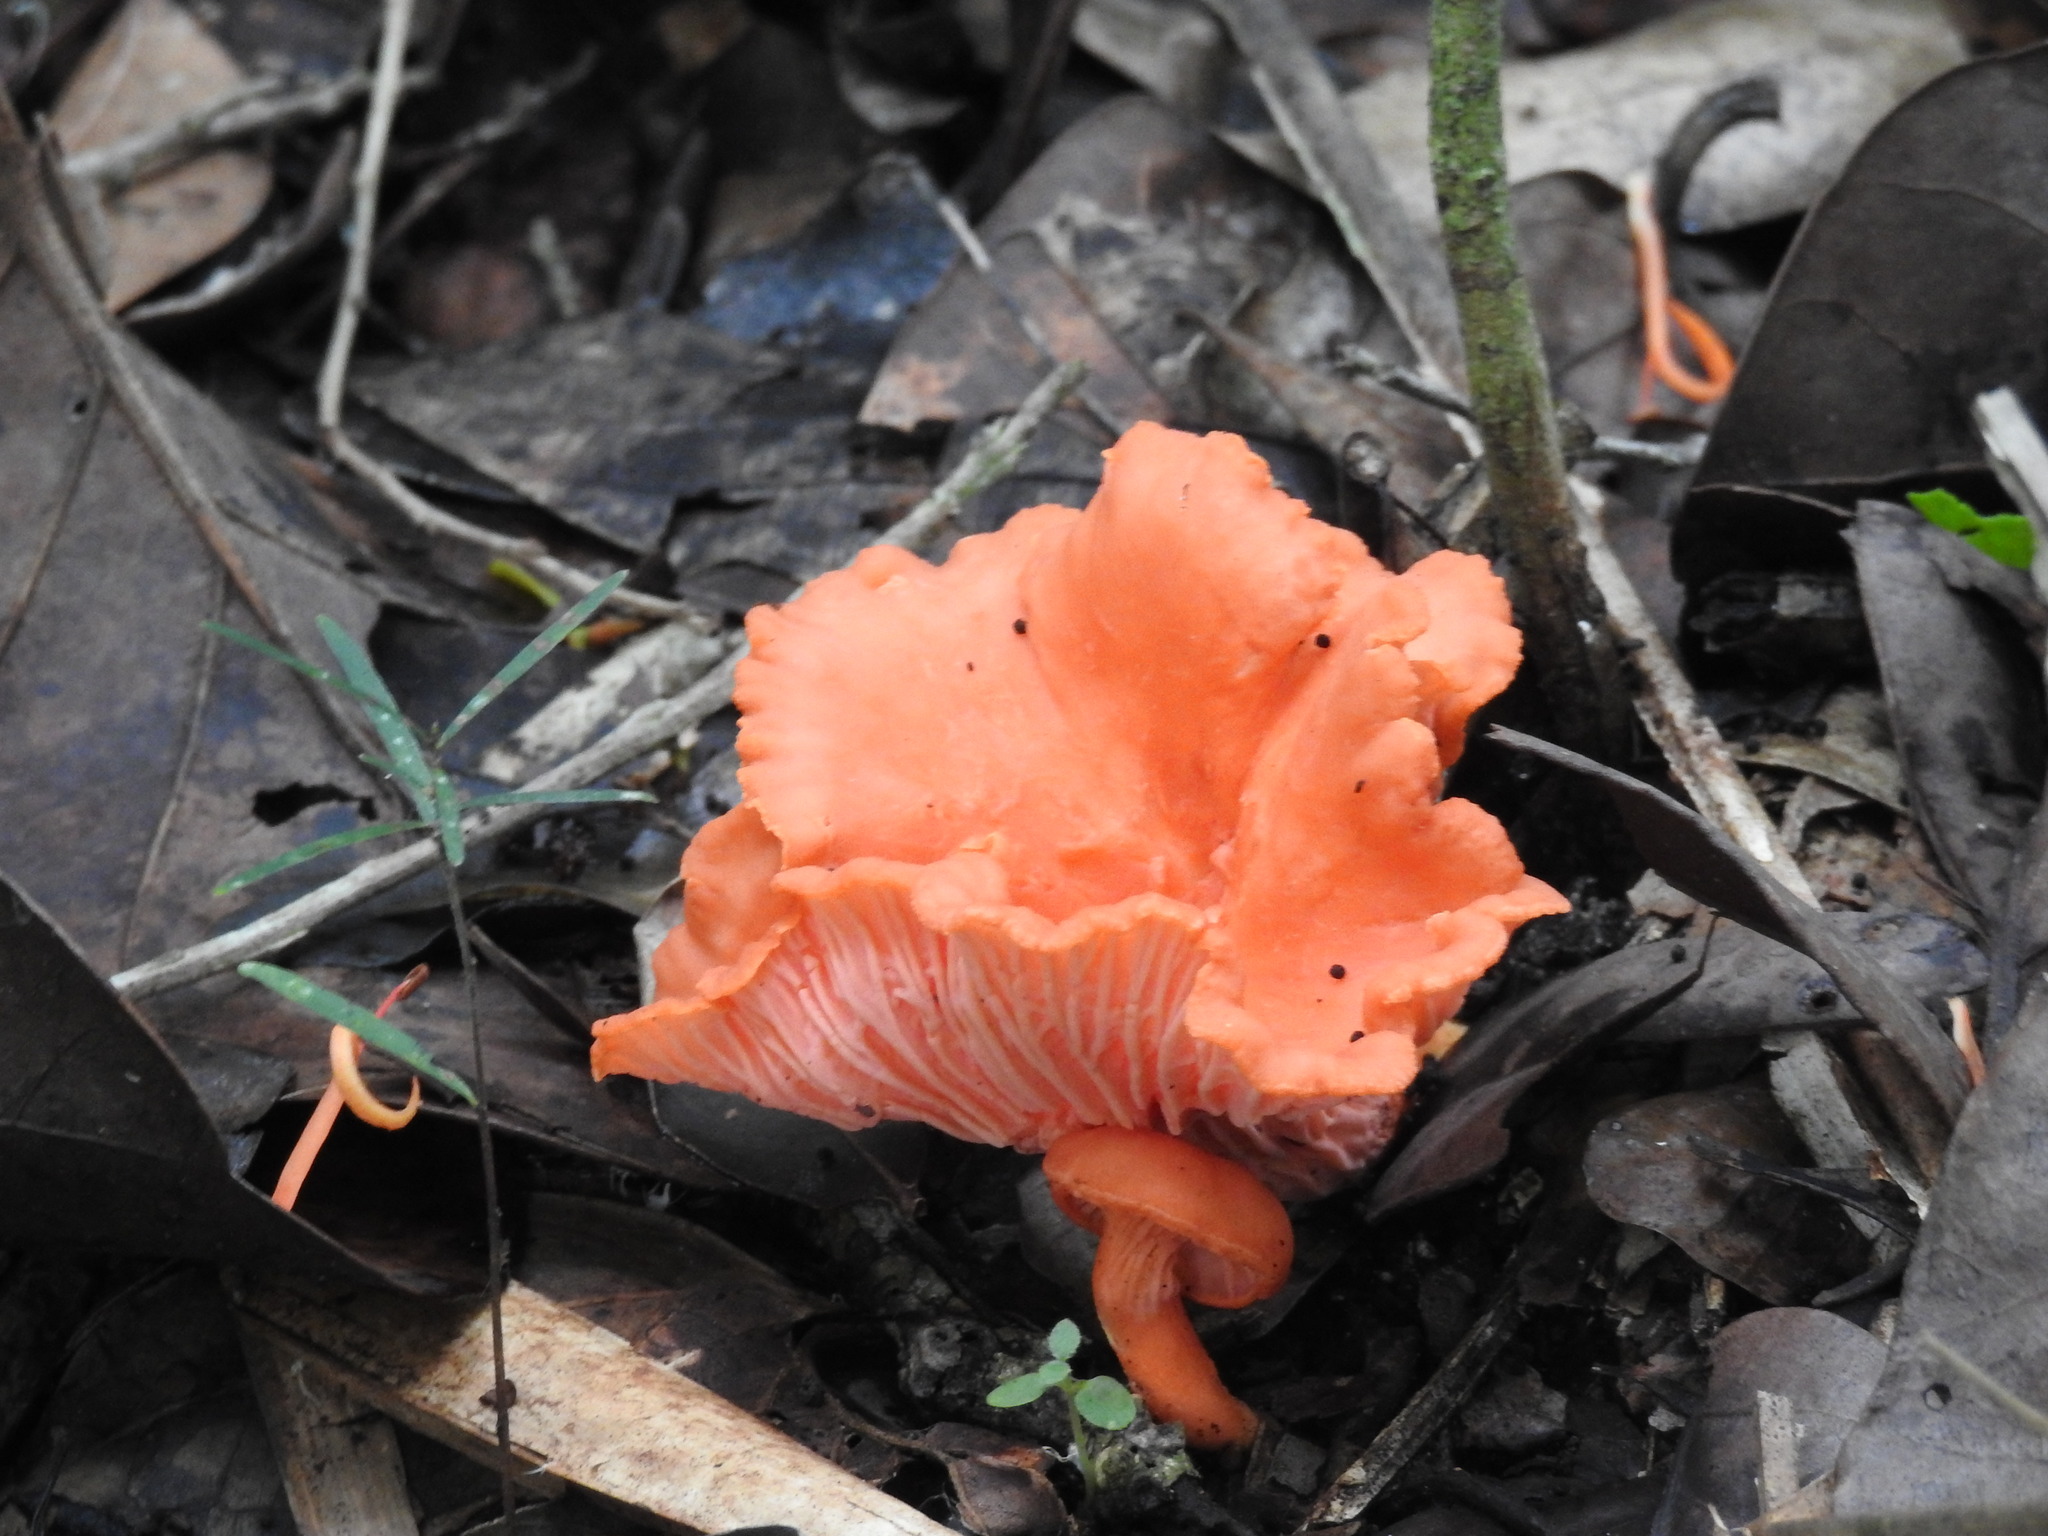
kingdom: Fungi
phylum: Basidiomycota
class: Agaricomycetes
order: Cantharellales
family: Hydnaceae
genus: Cantharellus
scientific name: Cantharellus coccolobae
